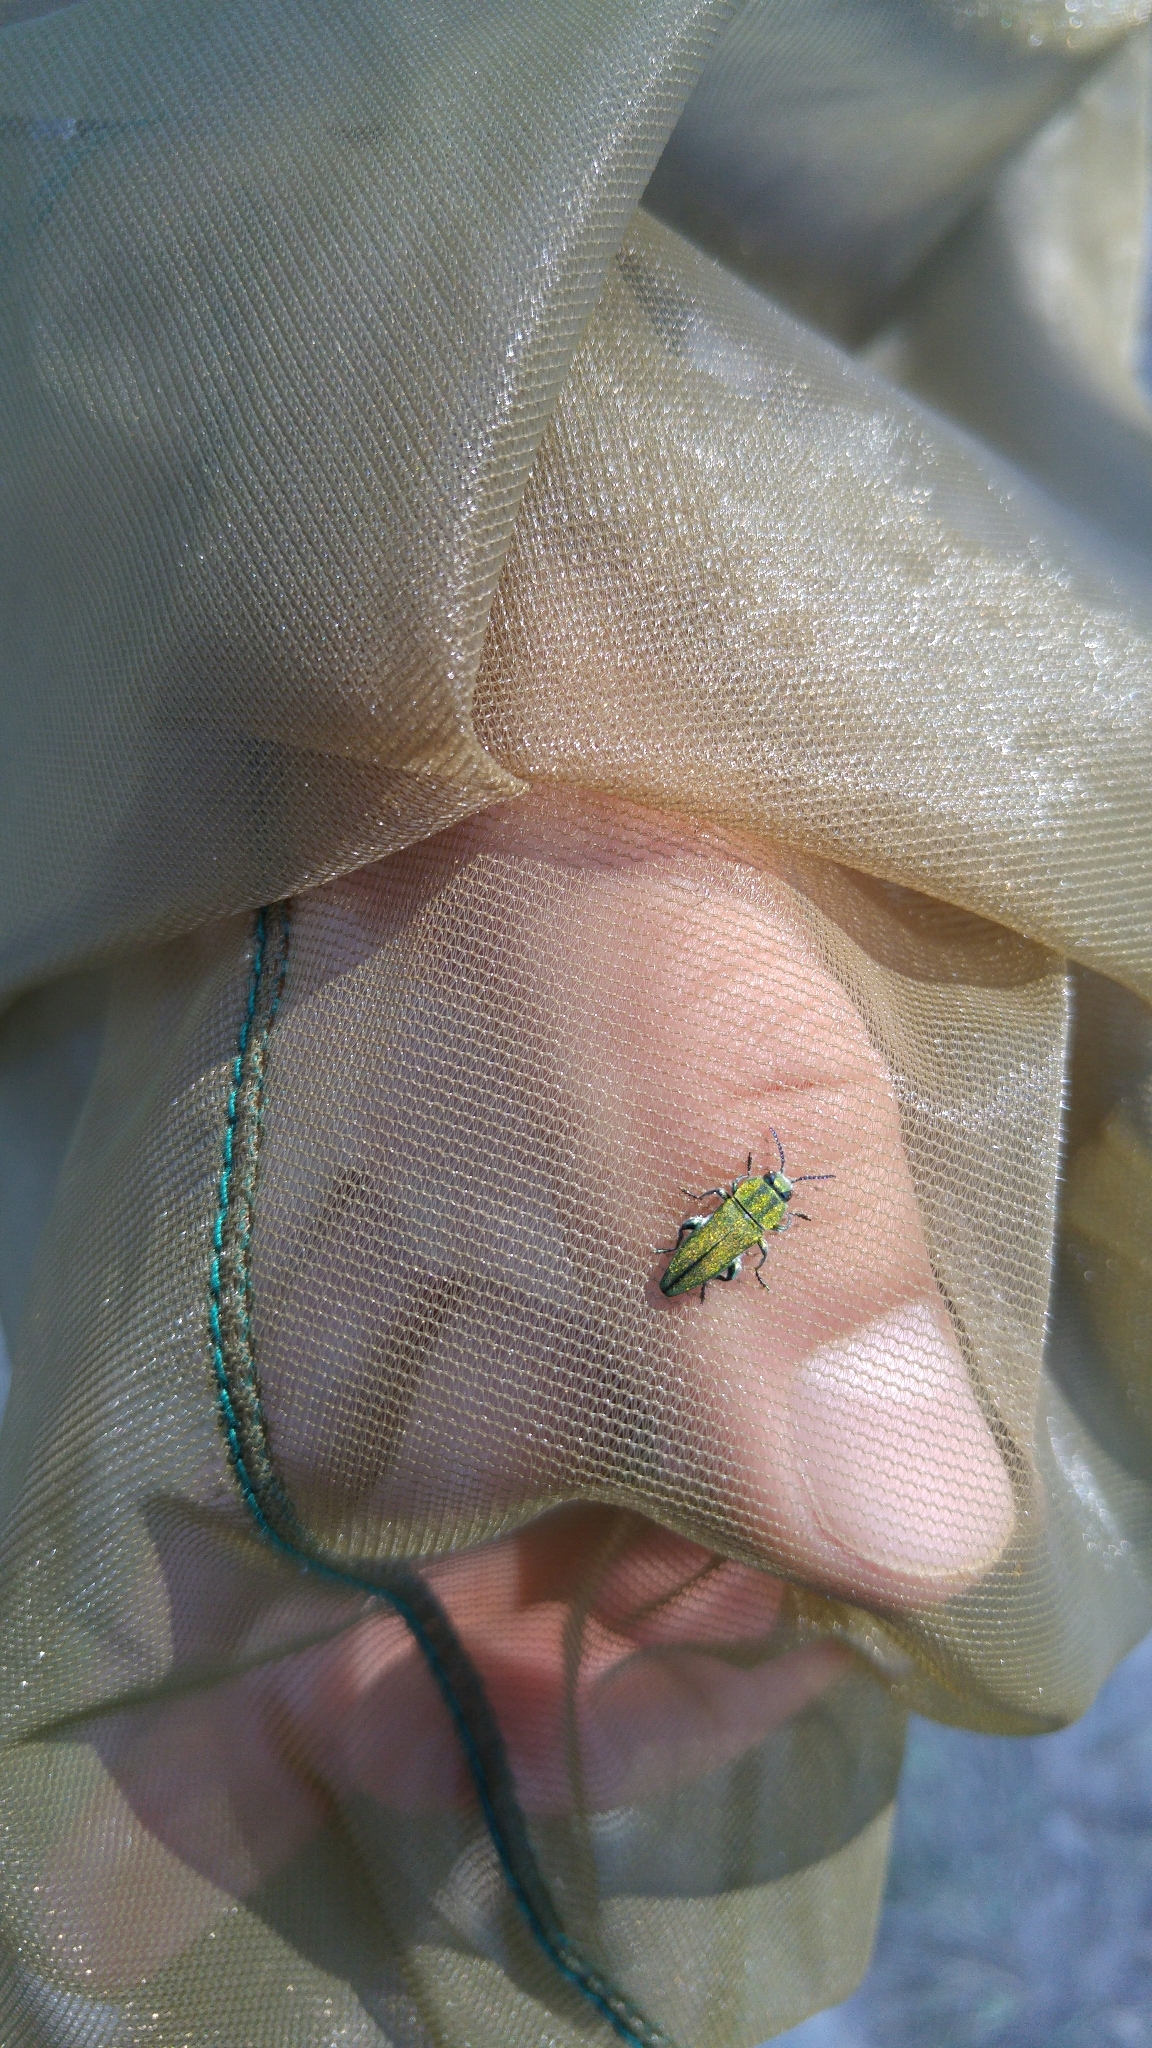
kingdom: Animalia
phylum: Arthropoda
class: Insecta
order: Coleoptera
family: Buprestidae
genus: Anthaxia
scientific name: Anthaxia hungarica
